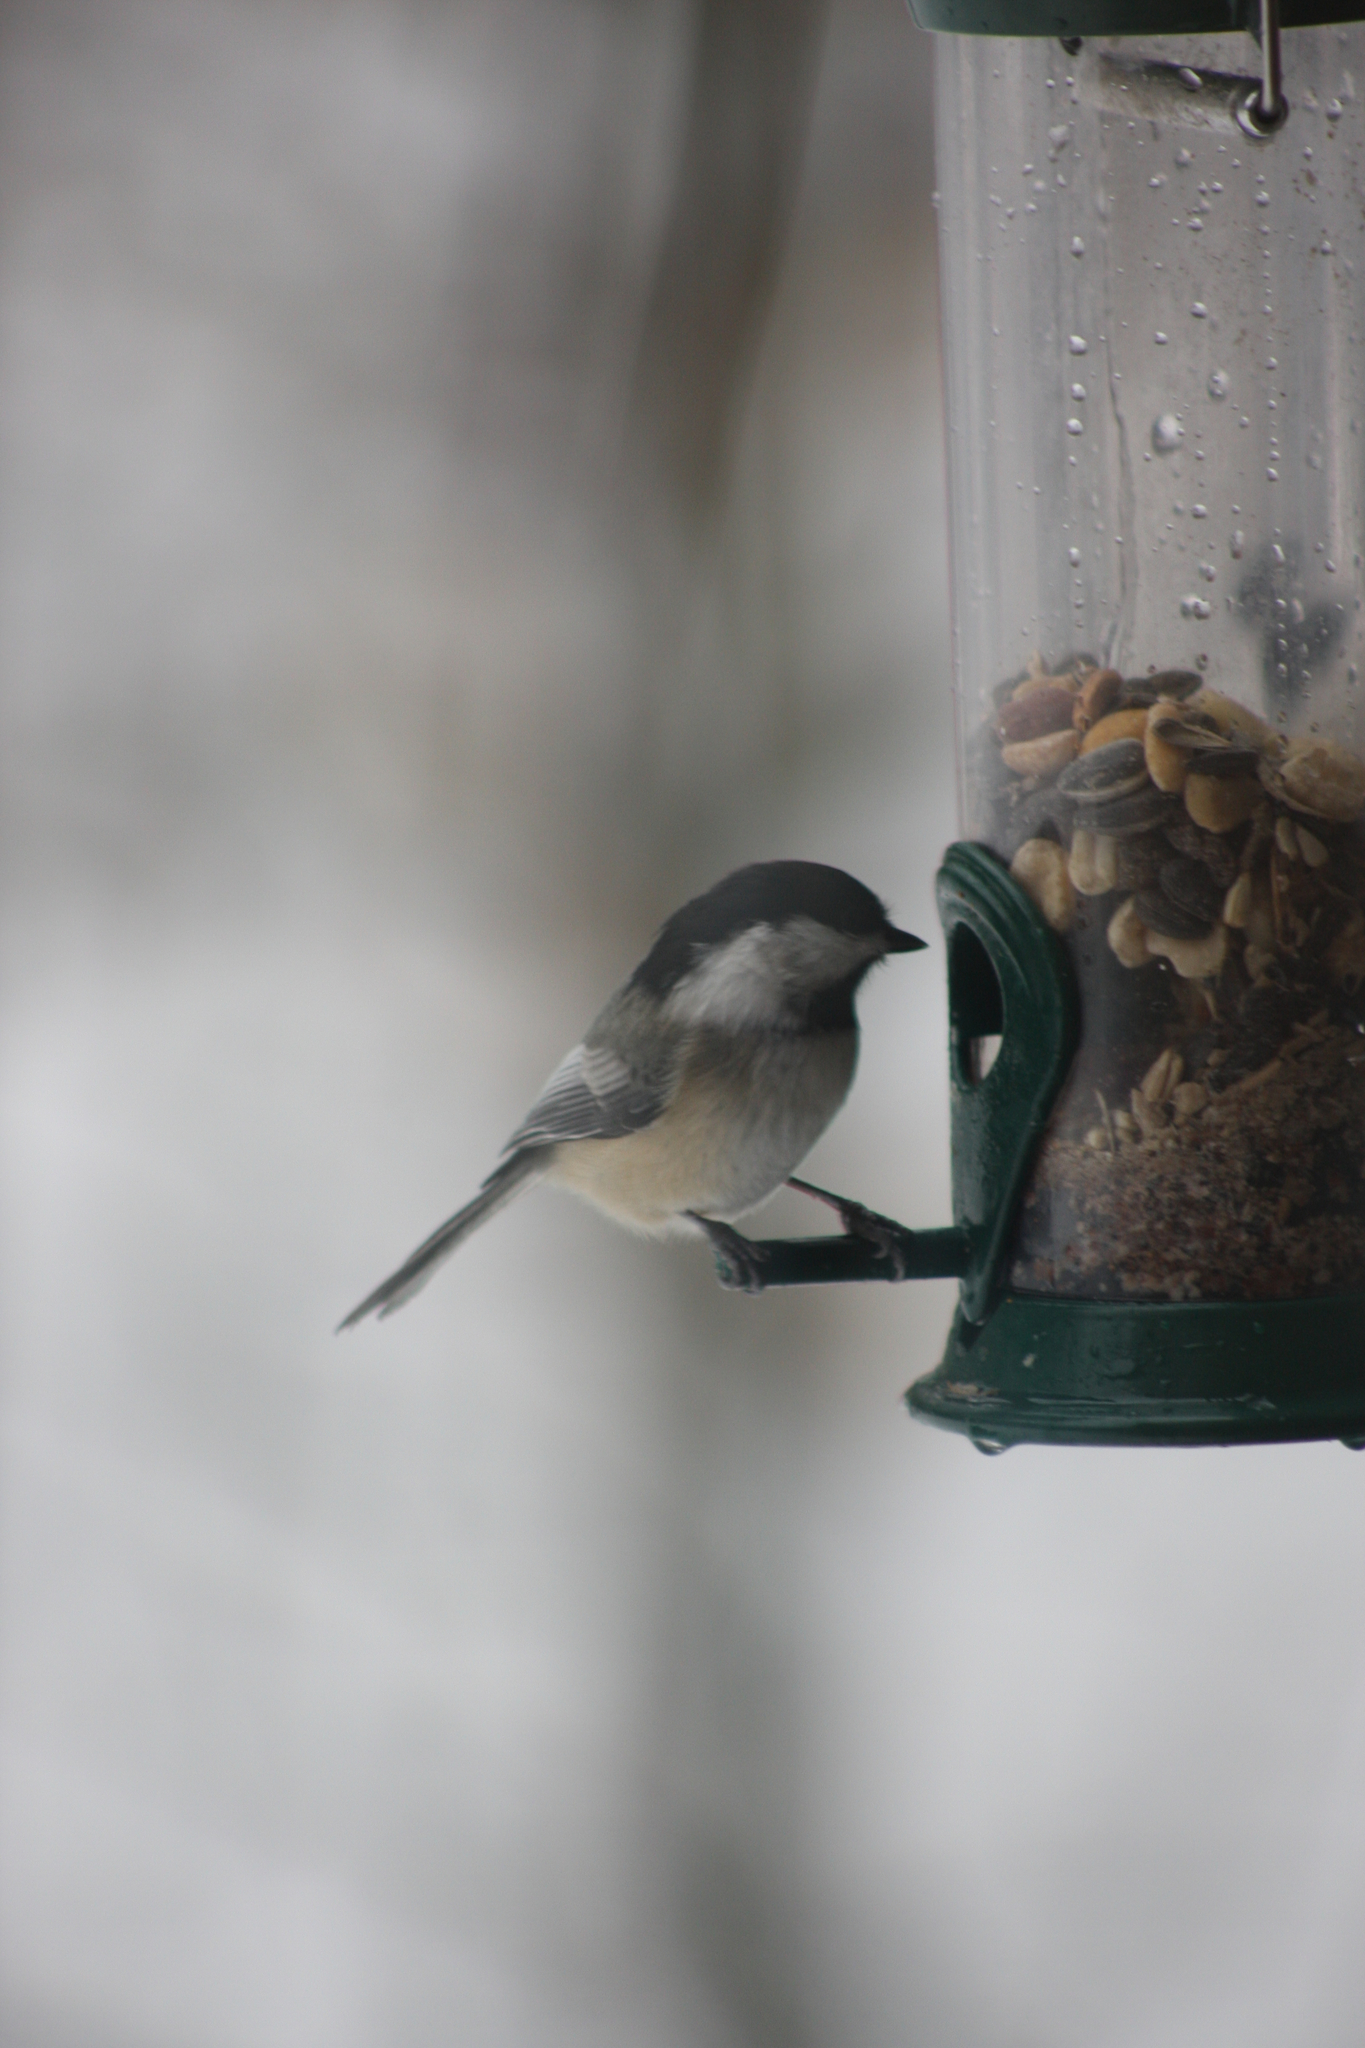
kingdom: Animalia
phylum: Chordata
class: Aves
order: Passeriformes
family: Paridae
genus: Poecile
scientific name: Poecile atricapillus
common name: Black-capped chickadee
